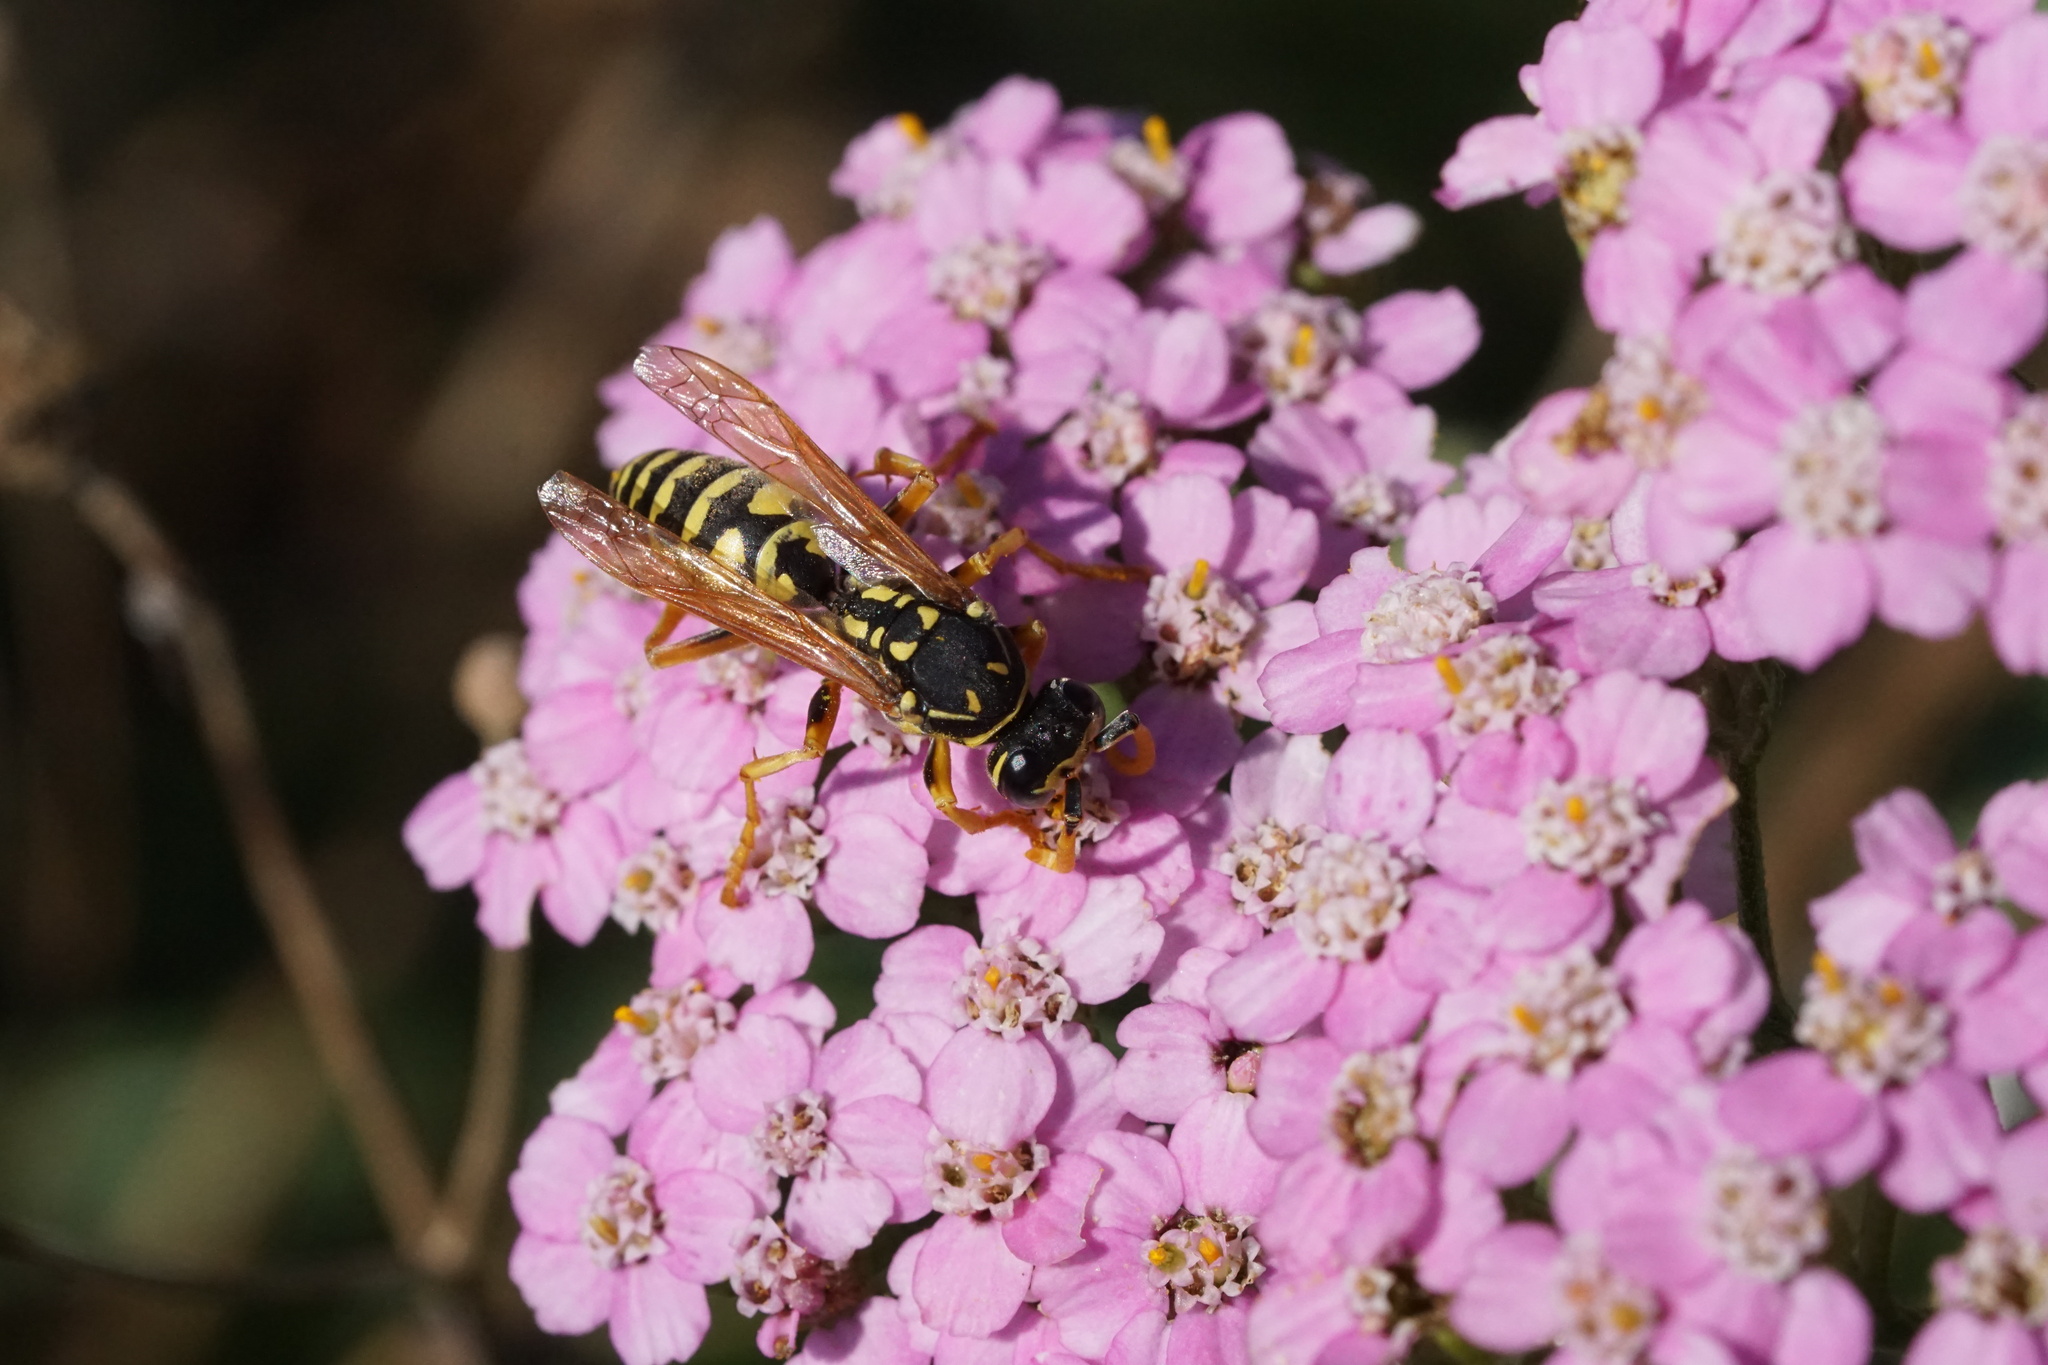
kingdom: Animalia
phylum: Arthropoda
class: Insecta
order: Hymenoptera
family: Eumenidae
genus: Polistes
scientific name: Polistes dominula
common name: Paper wasp
